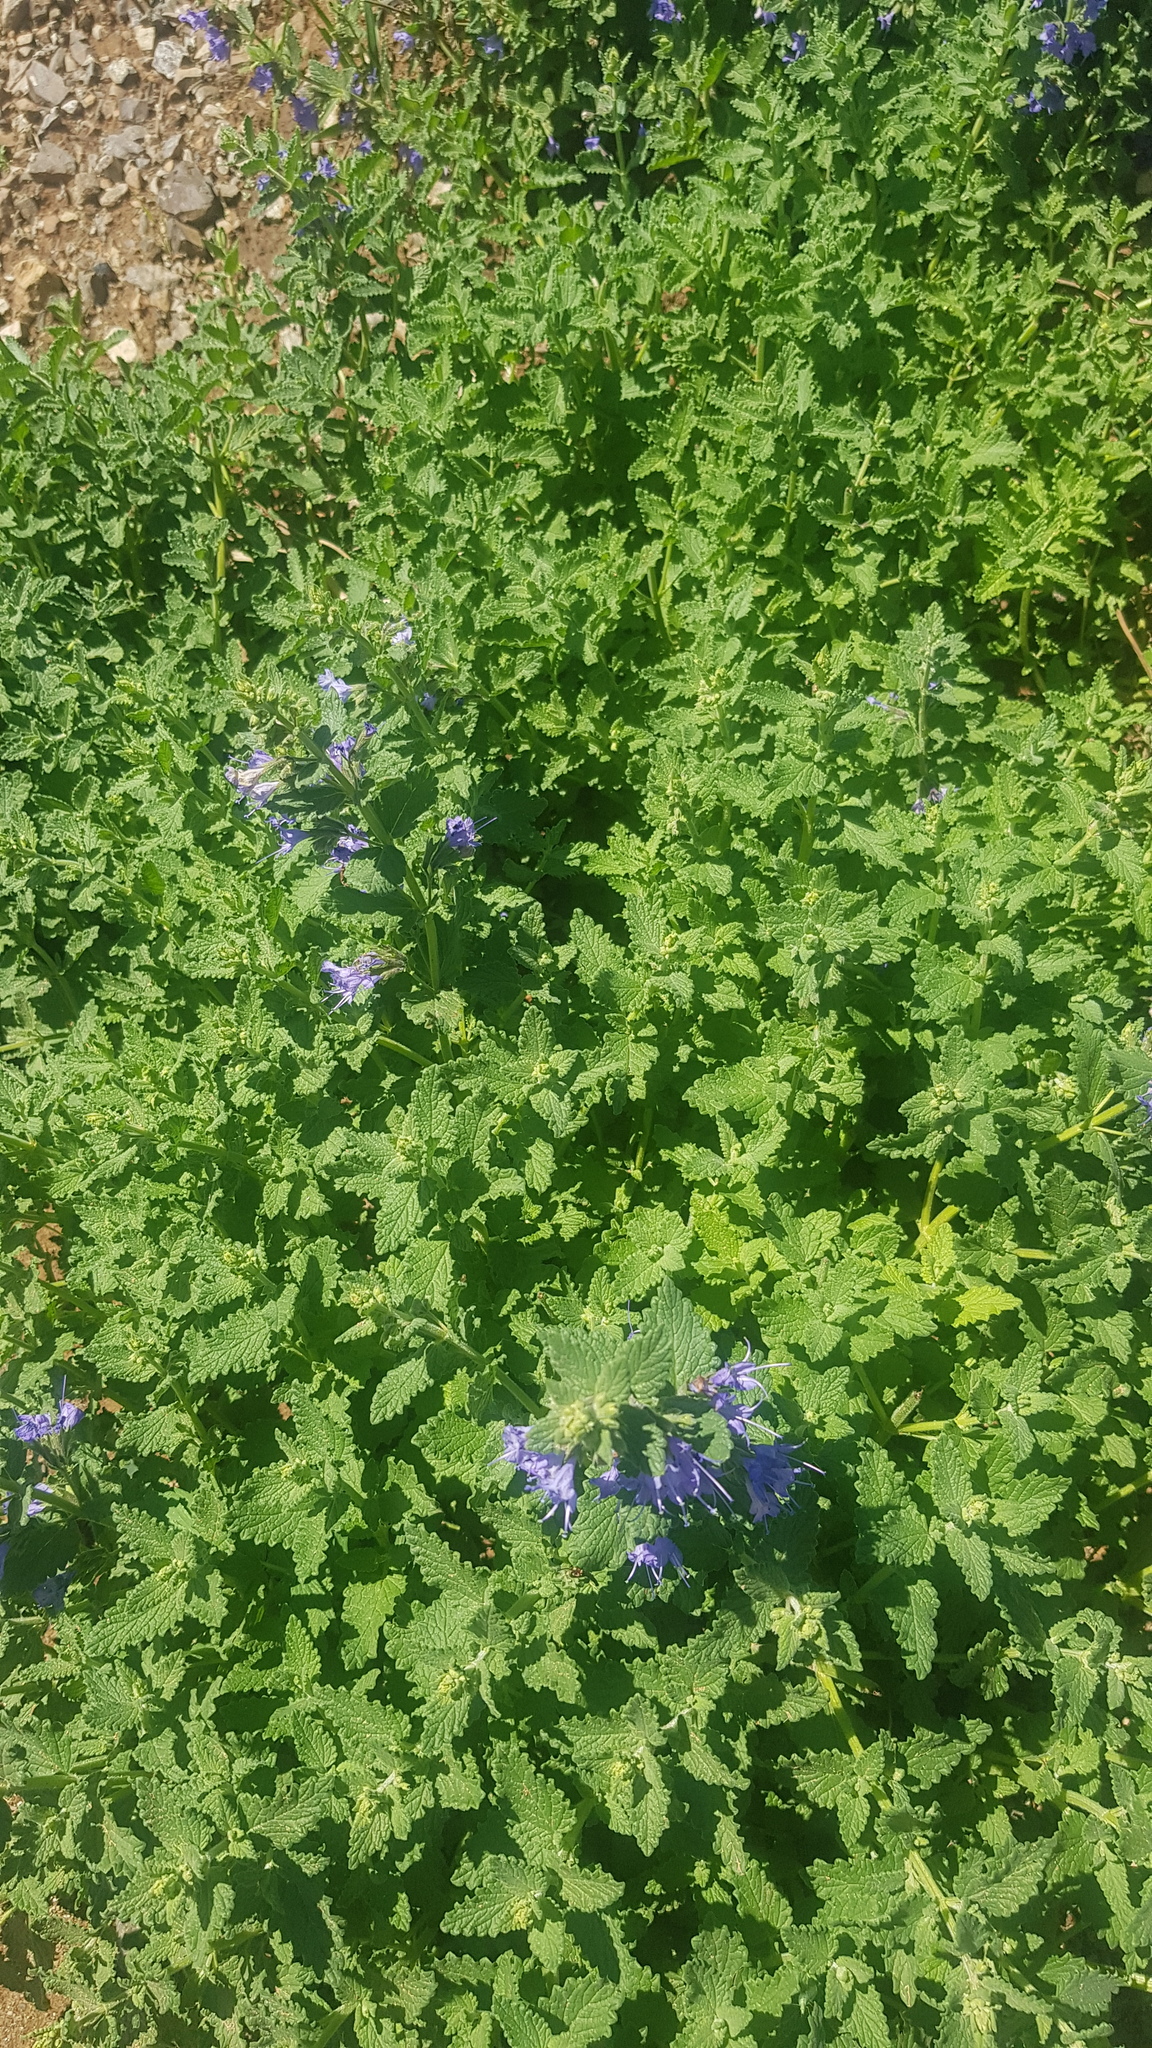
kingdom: Plantae
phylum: Tracheophyta
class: Magnoliopsida
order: Lamiales
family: Lamiaceae
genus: Nepeta
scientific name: Nepeta lophanthus
